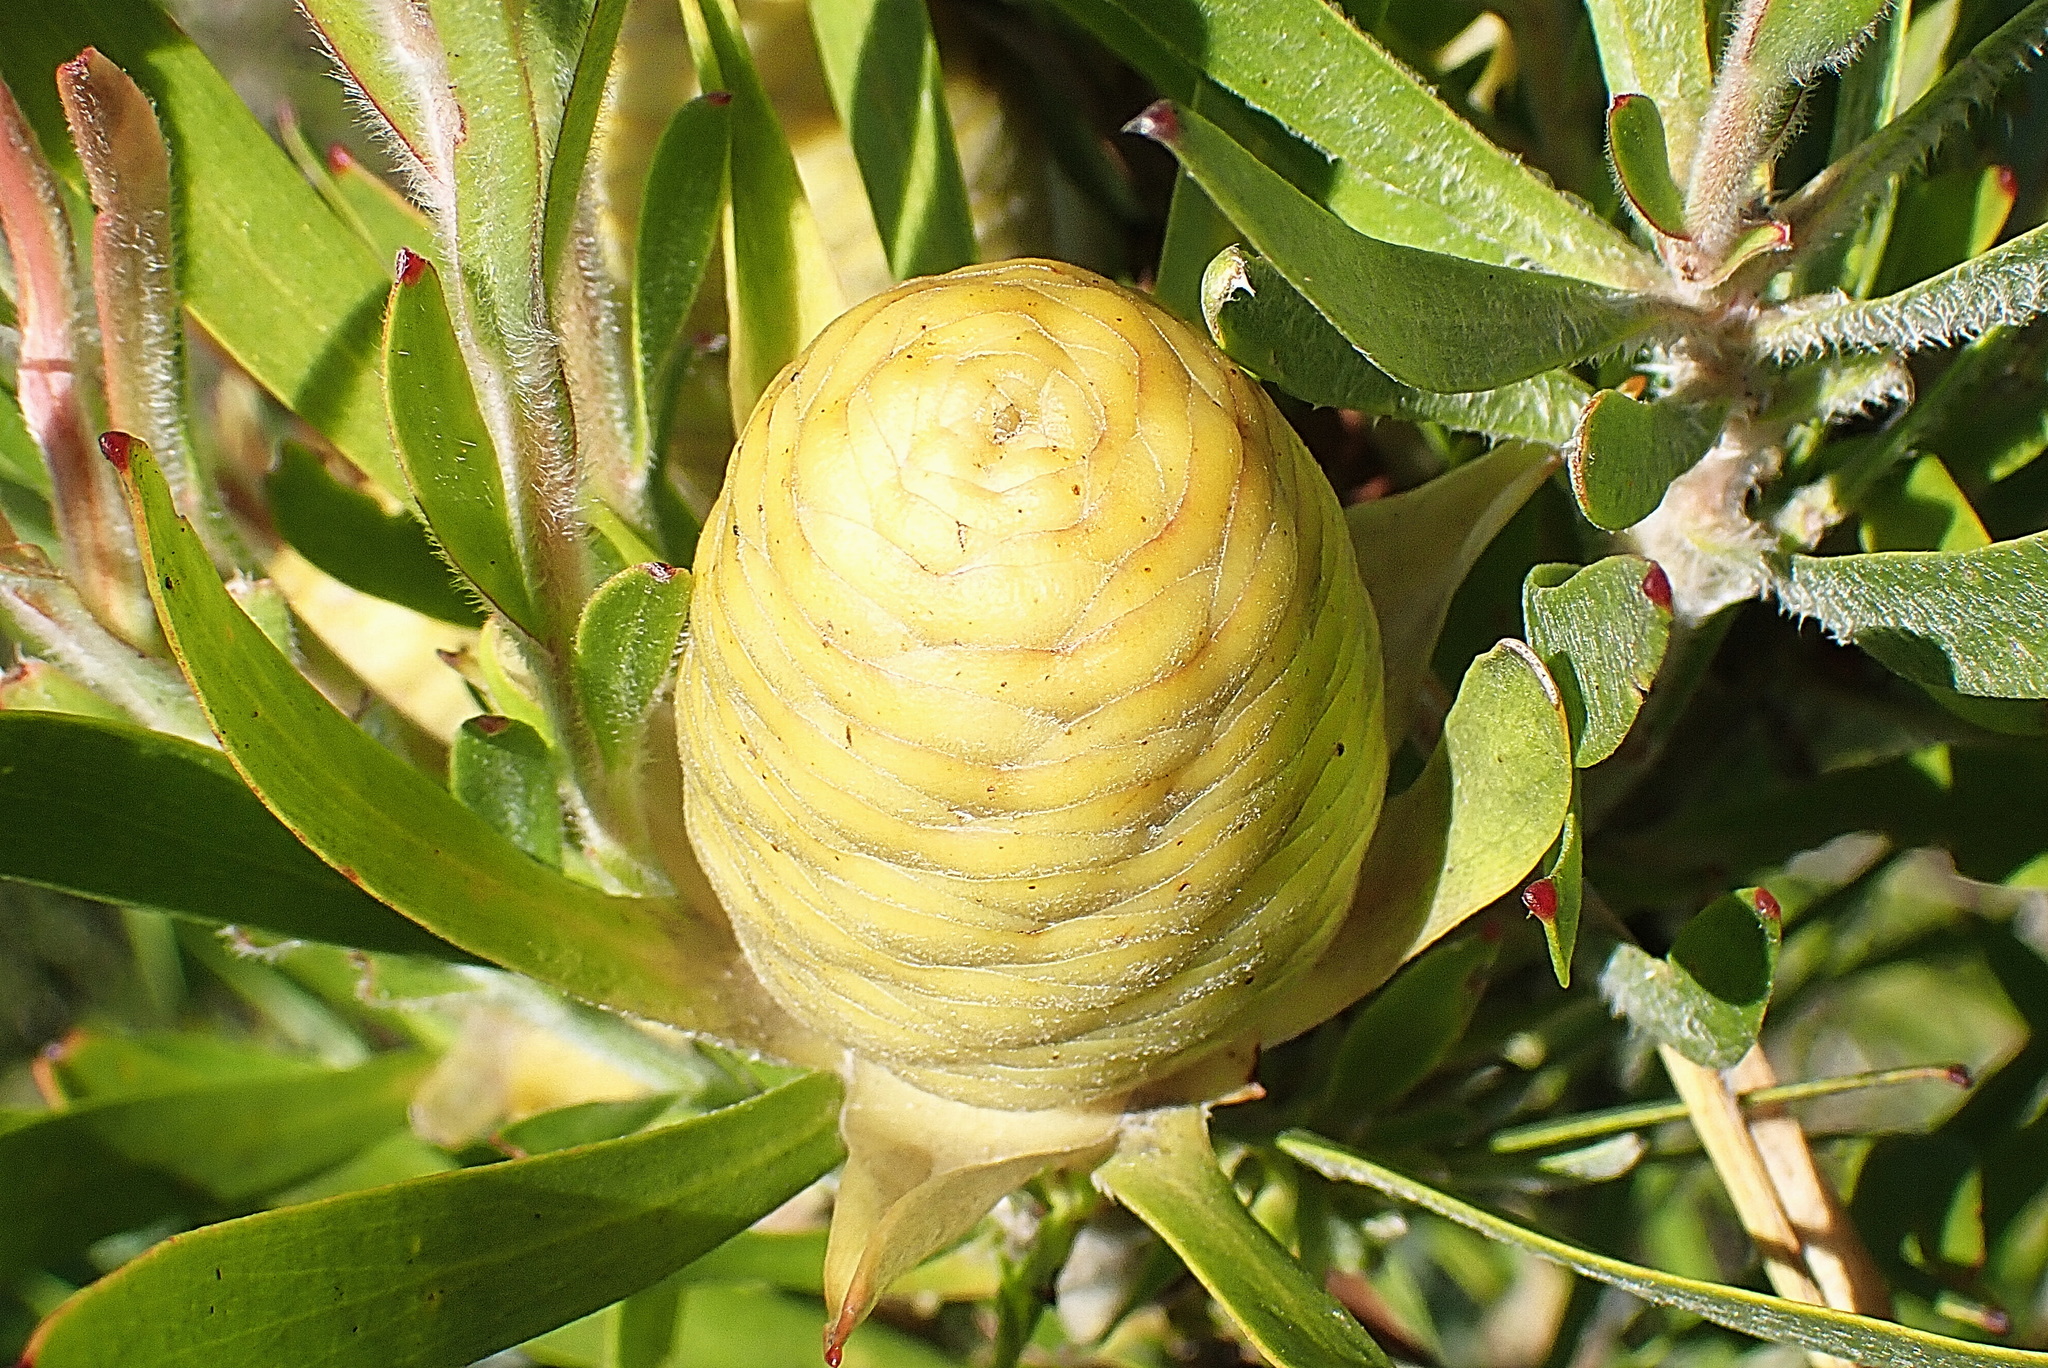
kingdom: Plantae
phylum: Tracheophyta
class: Magnoliopsida
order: Proteales
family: Proteaceae
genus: Leucadendron
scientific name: Leucadendron eucalyptifolium
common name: Gum-leaved conebush
